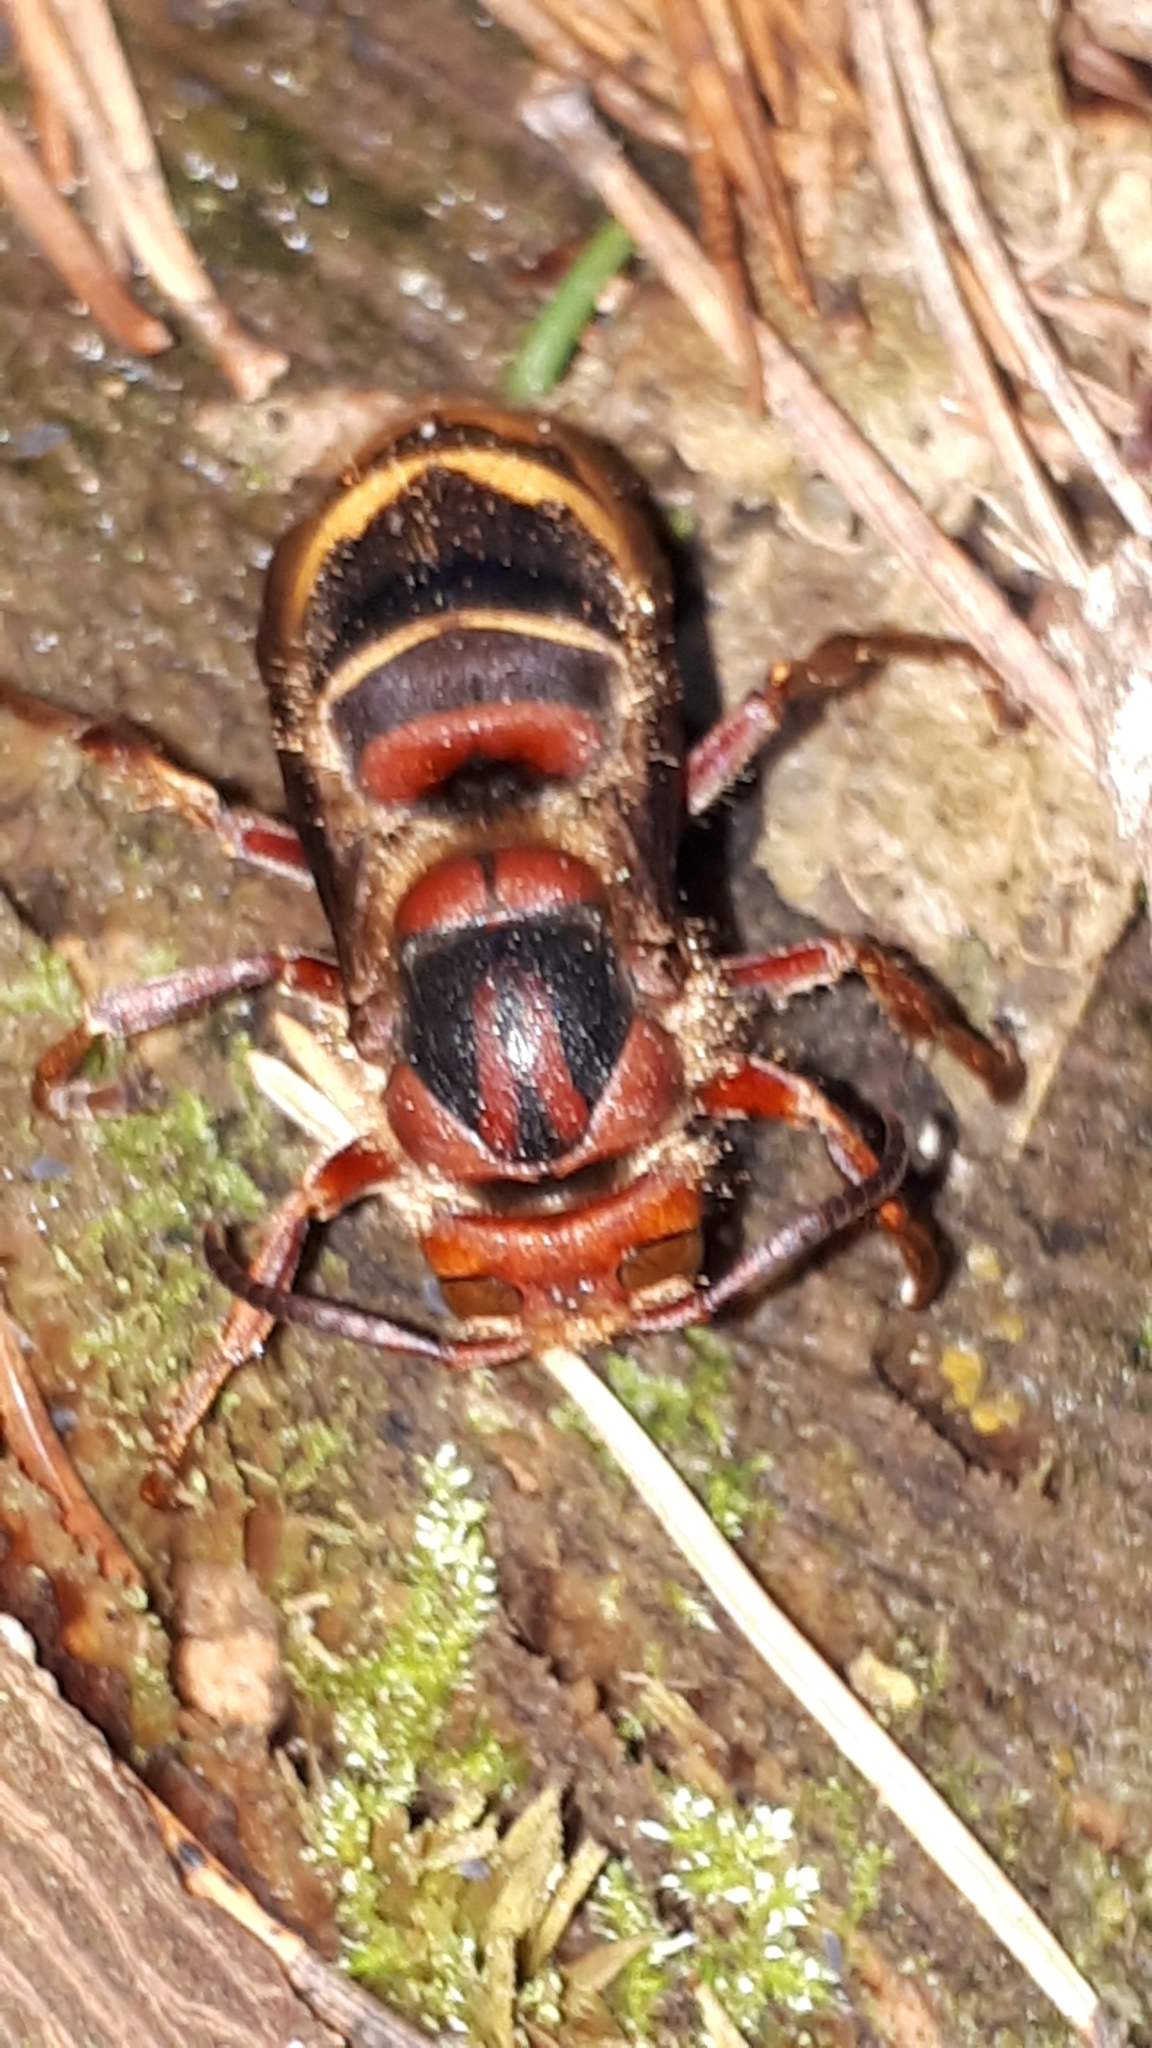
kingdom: Animalia
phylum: Arthropoda
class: Insecta
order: Hymenoptera
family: Vespidae
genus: Vespa
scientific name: Vespa crabro
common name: Hornet
